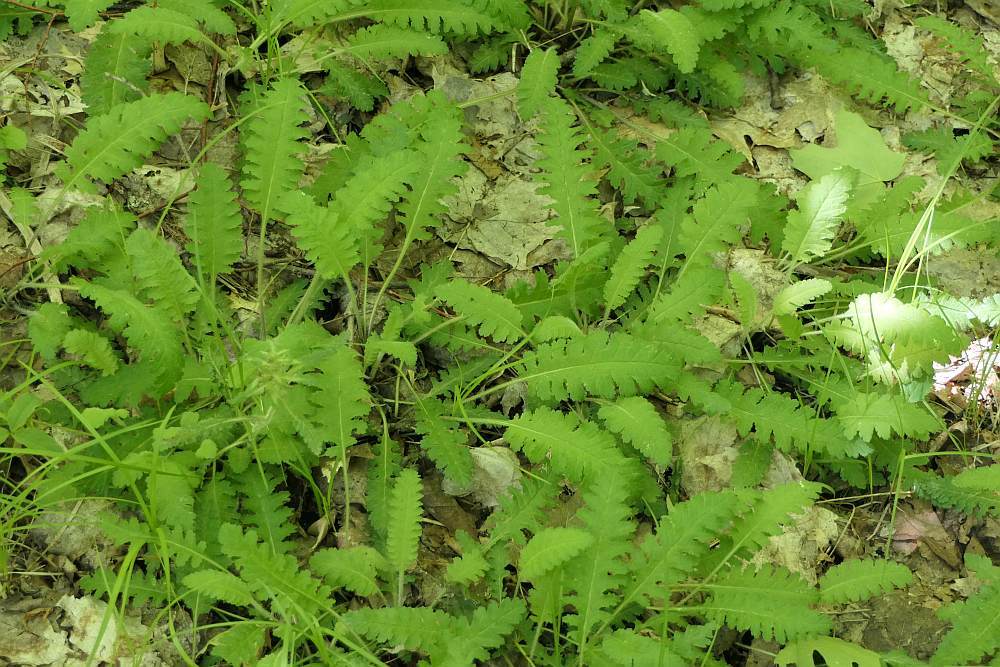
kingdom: Plantae
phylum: Tracheophyta
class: Magnoliopsida
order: Lamiales
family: Orobanchaceae
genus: Pedicularis
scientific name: Pedicularis canadensis
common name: Early lousewort
